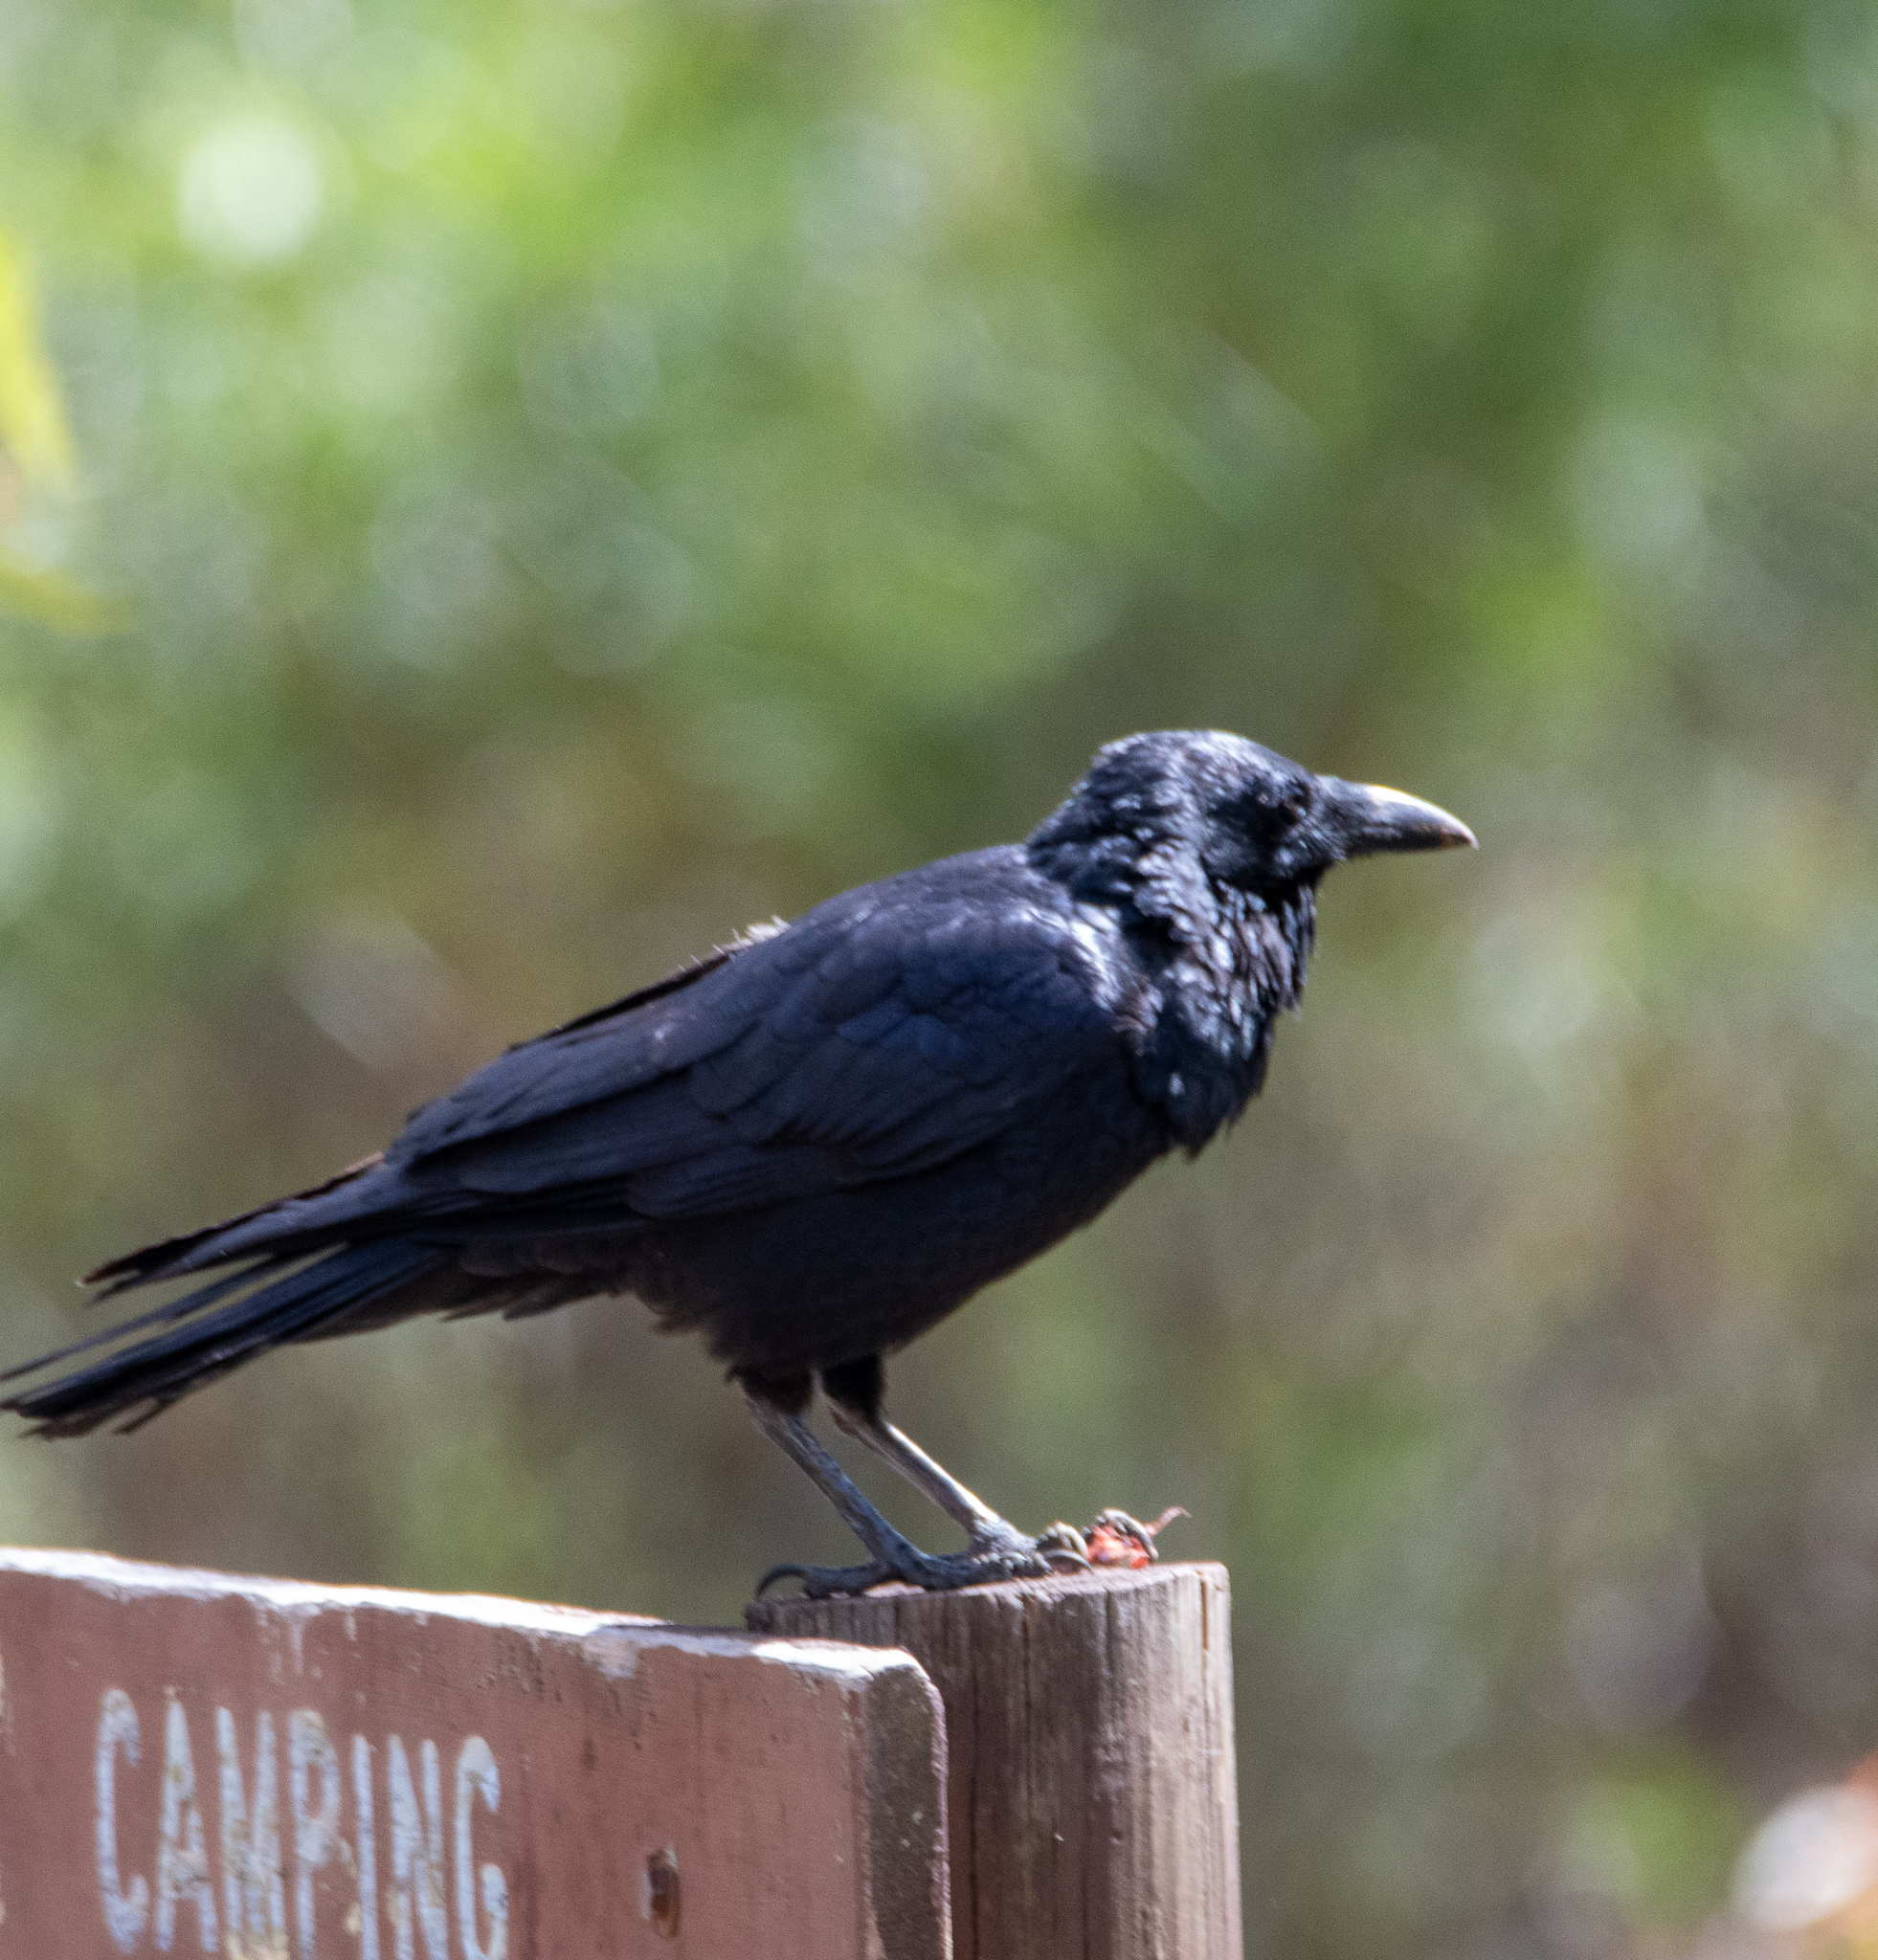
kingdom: Animalia
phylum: Chordata
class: Aves
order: Passeriformes
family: Corvidae
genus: Corvus
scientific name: Corvus coronoides
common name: Australian raven
